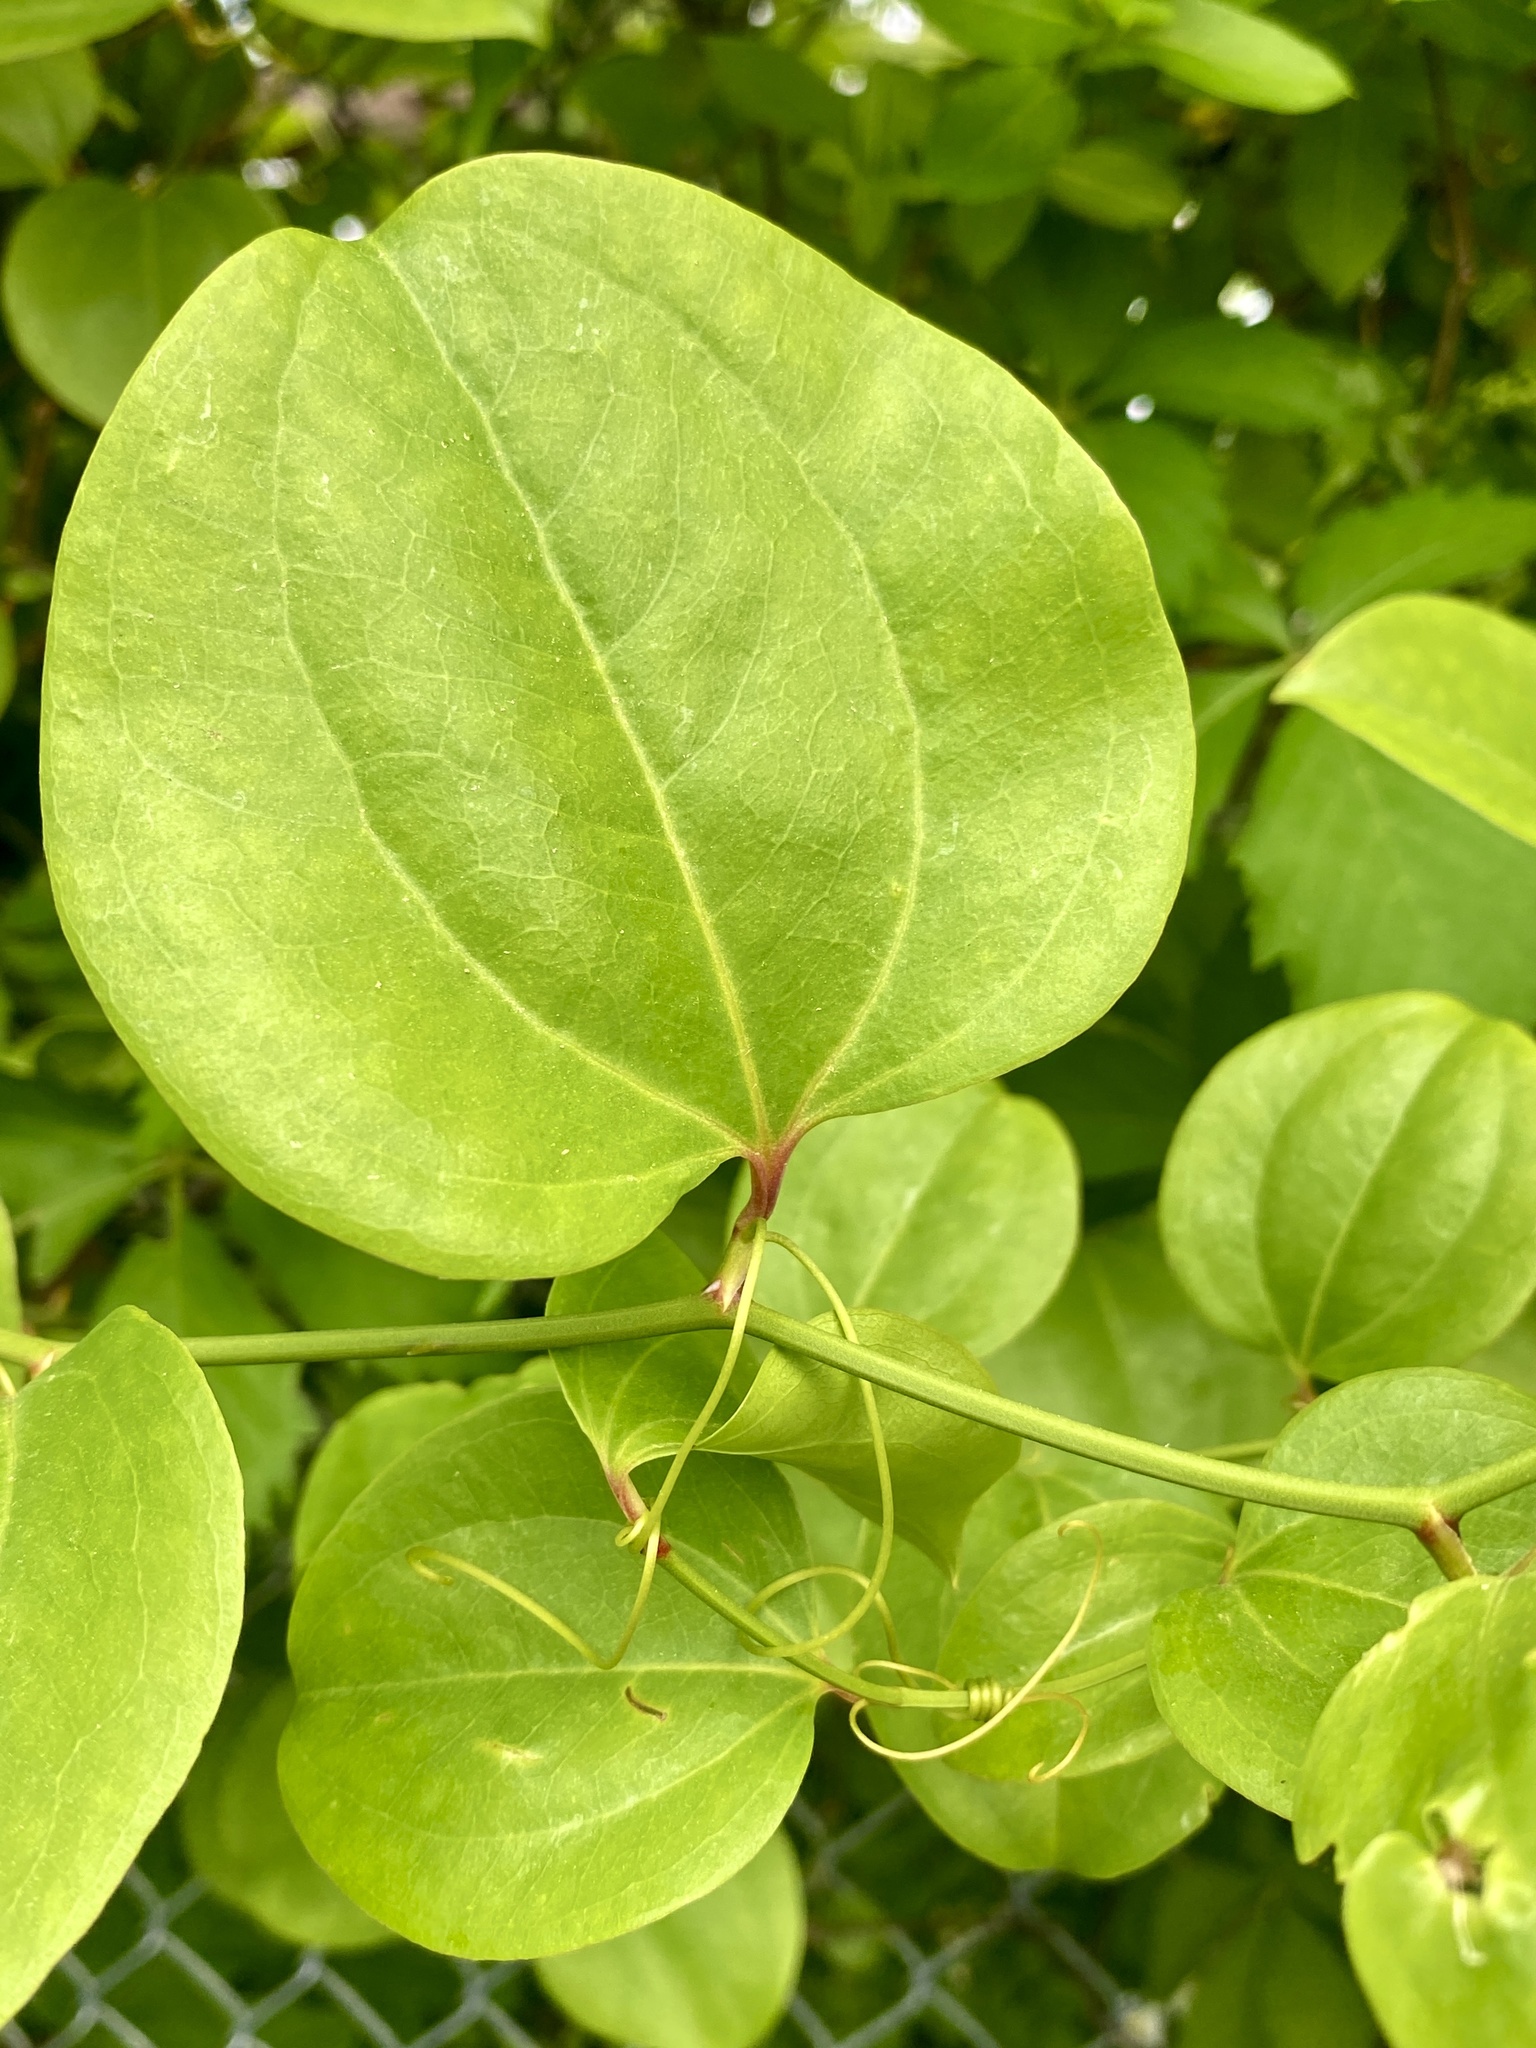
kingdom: Plantae
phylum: Tracheophyta
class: Liliopsida
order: Liliales
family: Smilacaceae
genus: Smilax
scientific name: Smilax rotundifolia
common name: Bullbriar
